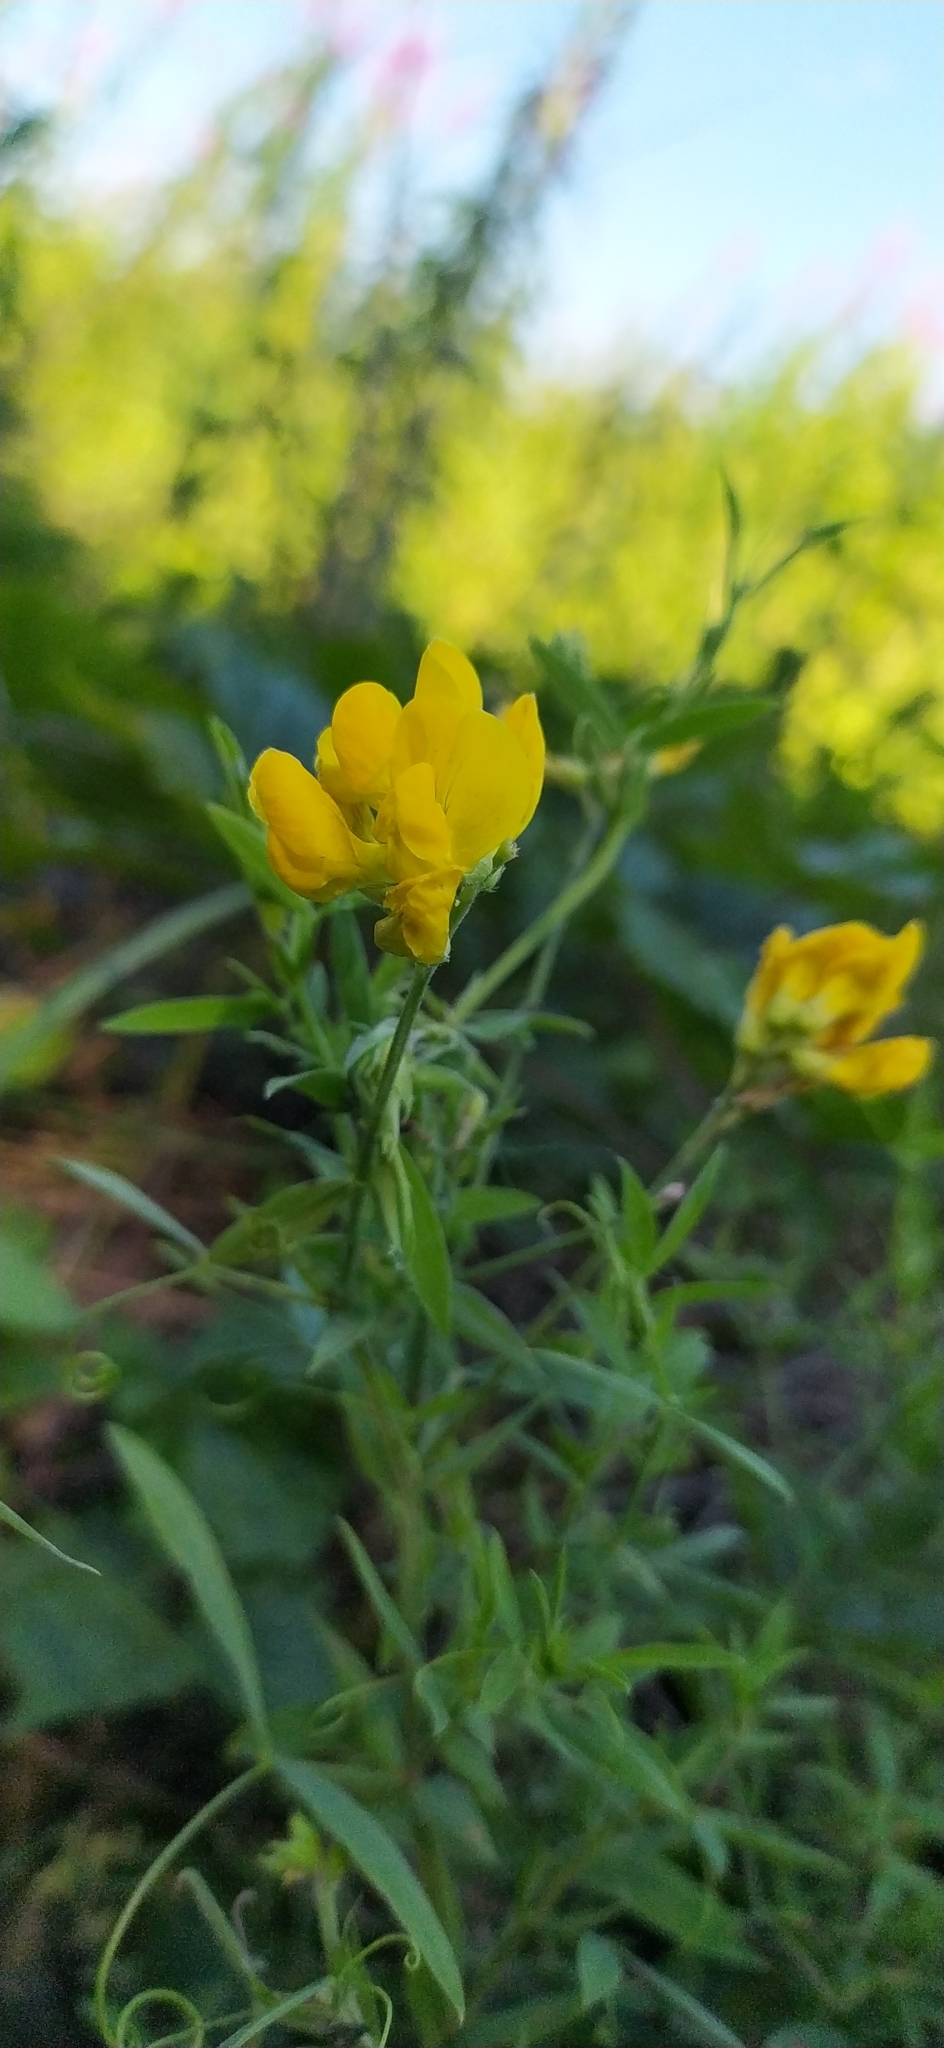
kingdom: Plantae
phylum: Tracheophyta
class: Magnoliopsida
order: Fabales
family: Fabaceae
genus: Lathyrus
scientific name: Lathyrus pratensis
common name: Meadow vetchling
